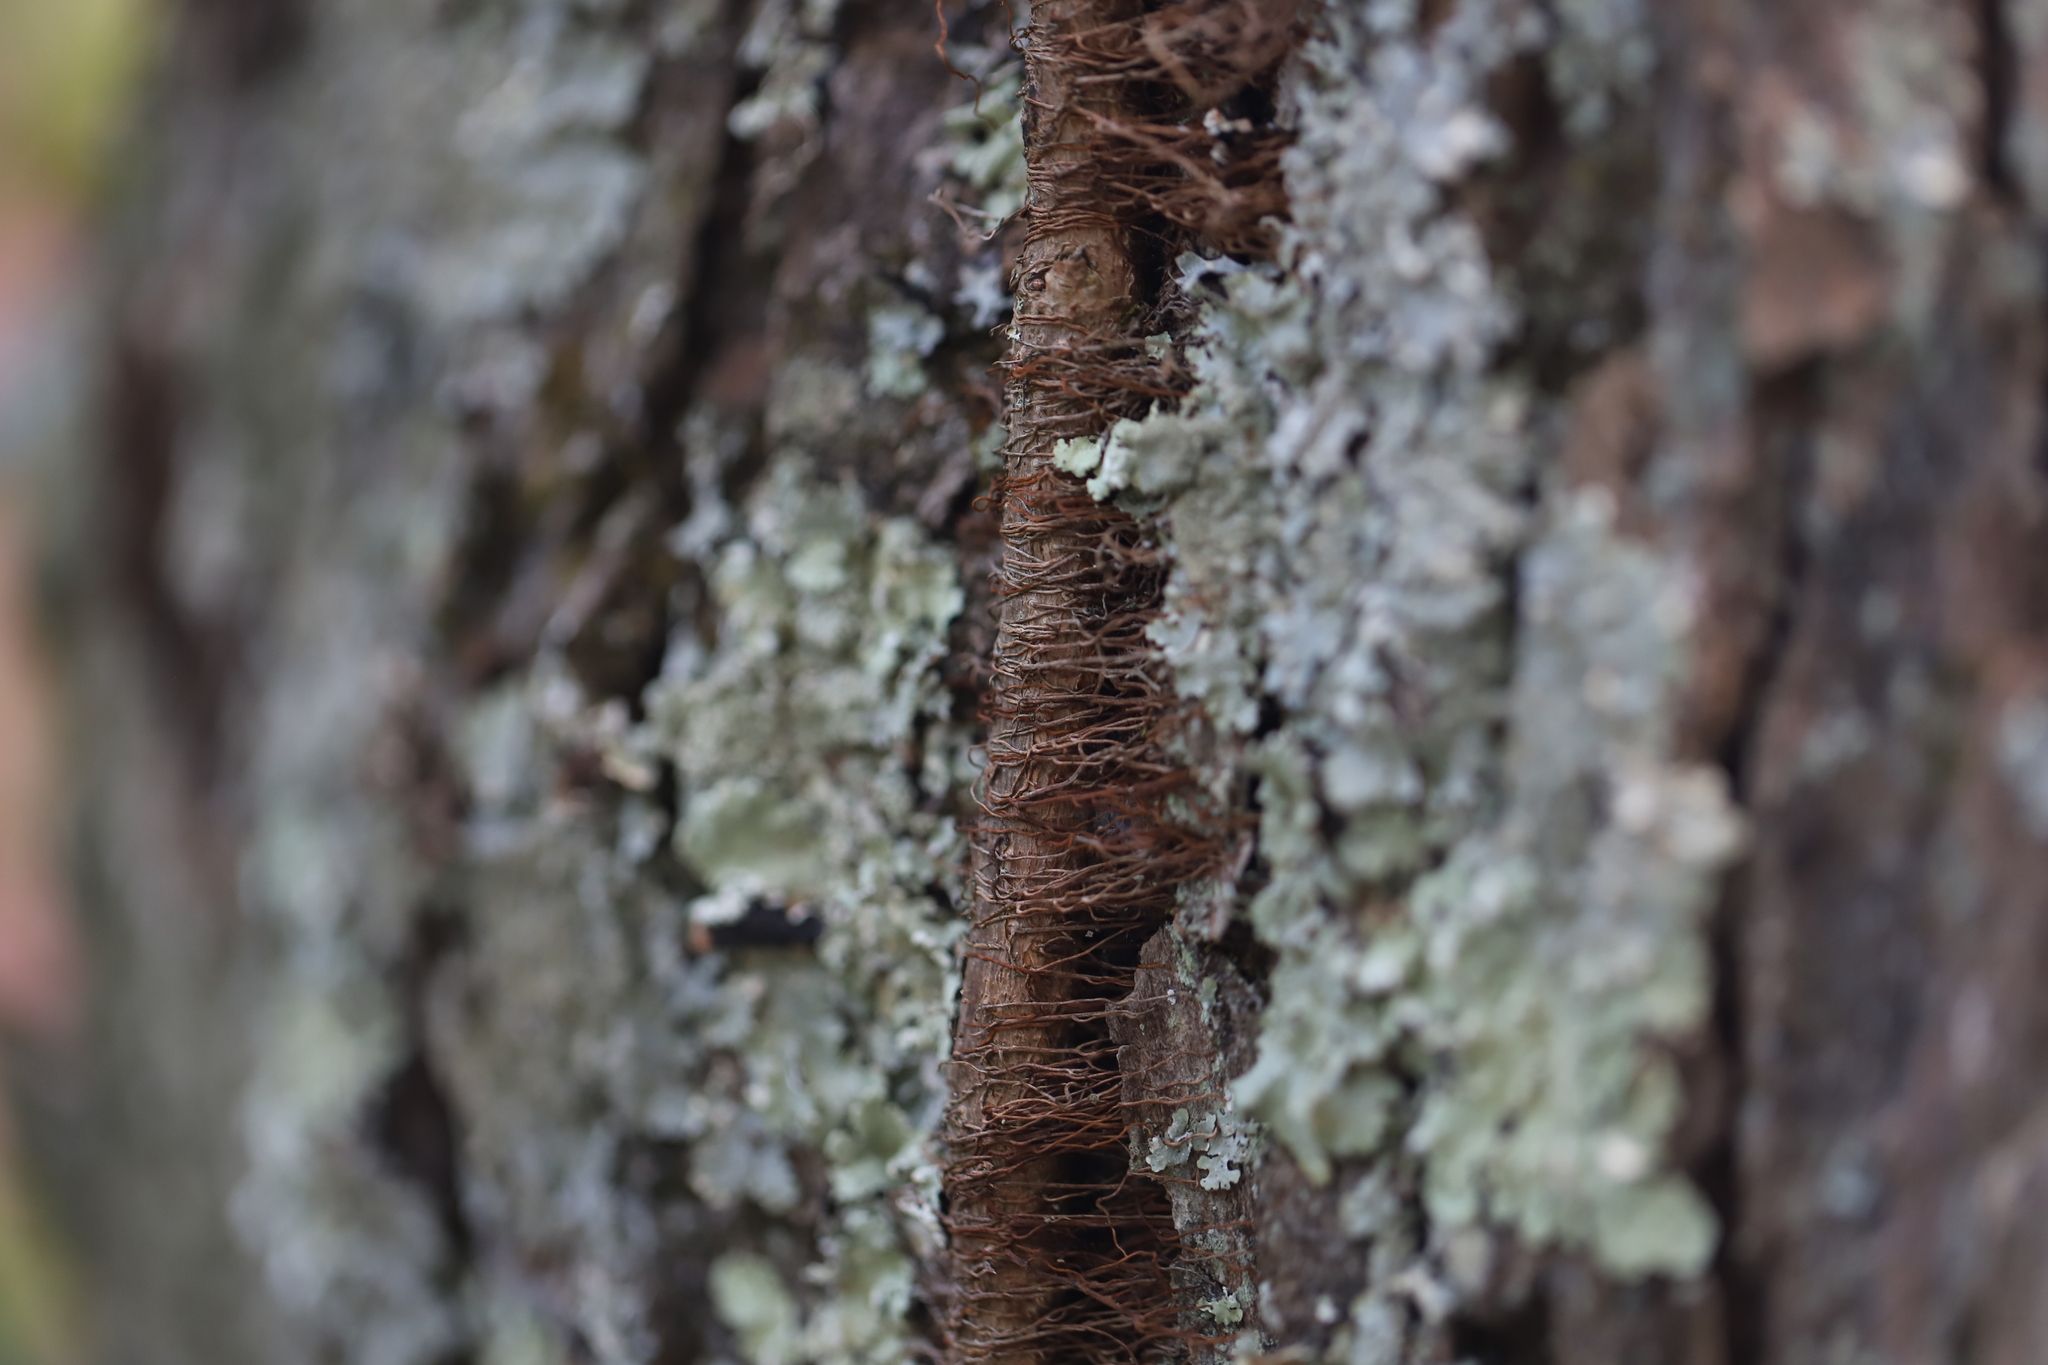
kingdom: Plantae
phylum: Tracheophyta
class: Magnoliopsida
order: Sapindales
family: Anacardiaceae
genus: Toxicodendron
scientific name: Toxicodendron radicans
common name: Poison ivy
